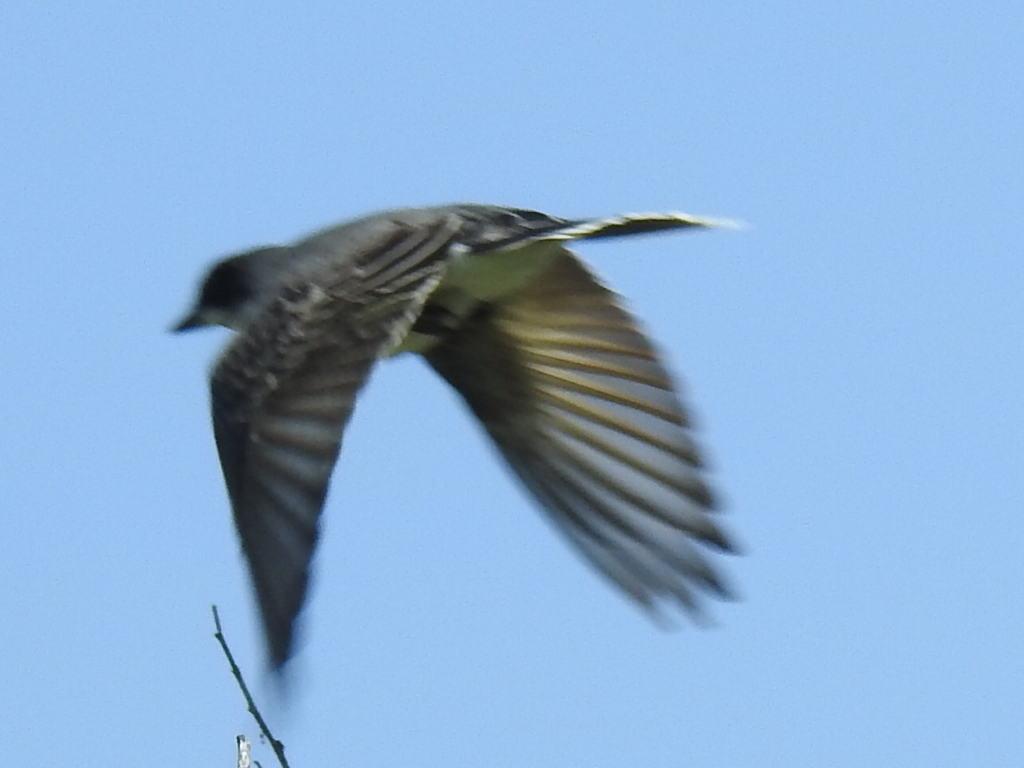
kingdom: Animalia
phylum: Chordata
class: Aves
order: Passeriformes
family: Tyrannidae
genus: Tyrannus
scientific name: Tyrannus tyrannus
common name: Eastern kingbird
